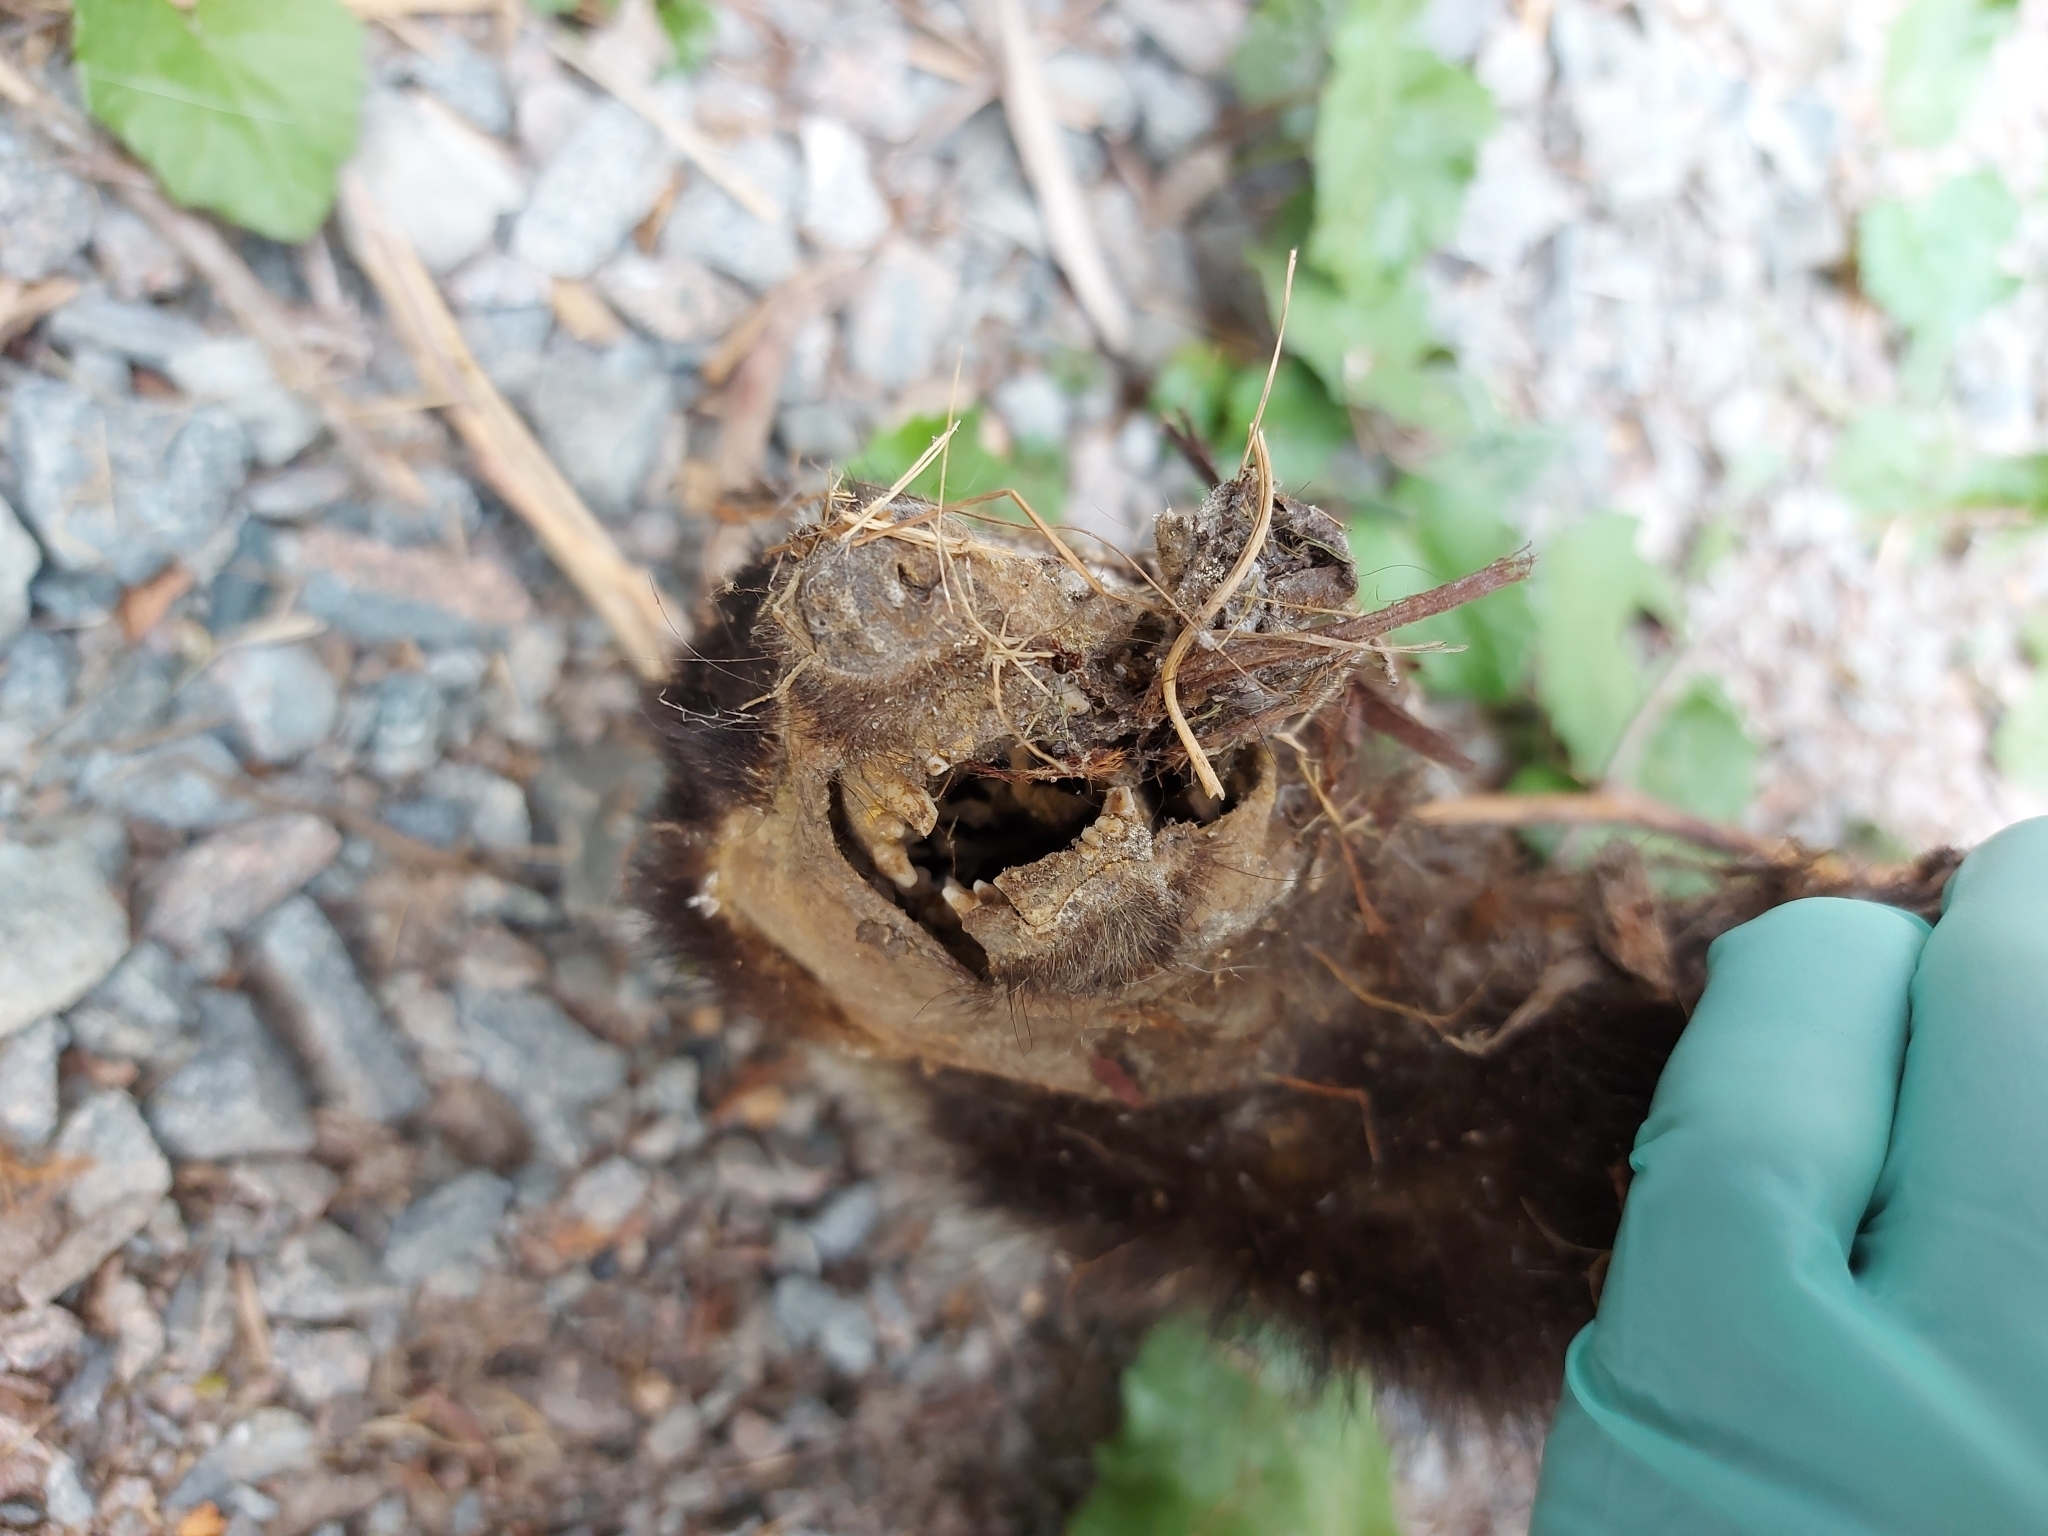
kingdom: Animalia
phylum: Chordata
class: Mammalia
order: Carnivora
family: Mephitidae
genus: Mephitis
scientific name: Mephitis mephitis
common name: Striped skunk
